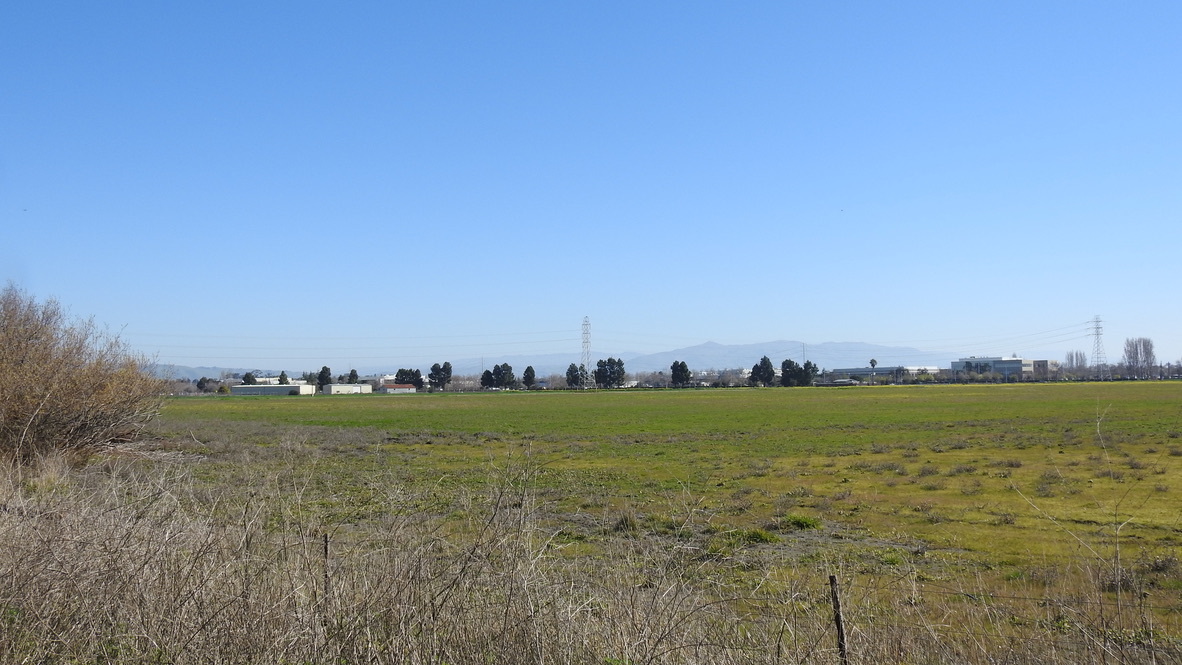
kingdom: Animalia
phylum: Chordata
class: Aves
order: Accipitriformes
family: Accipitridae
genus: Buteo
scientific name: Buteo jamaicensis
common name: Red-tailed hawk
